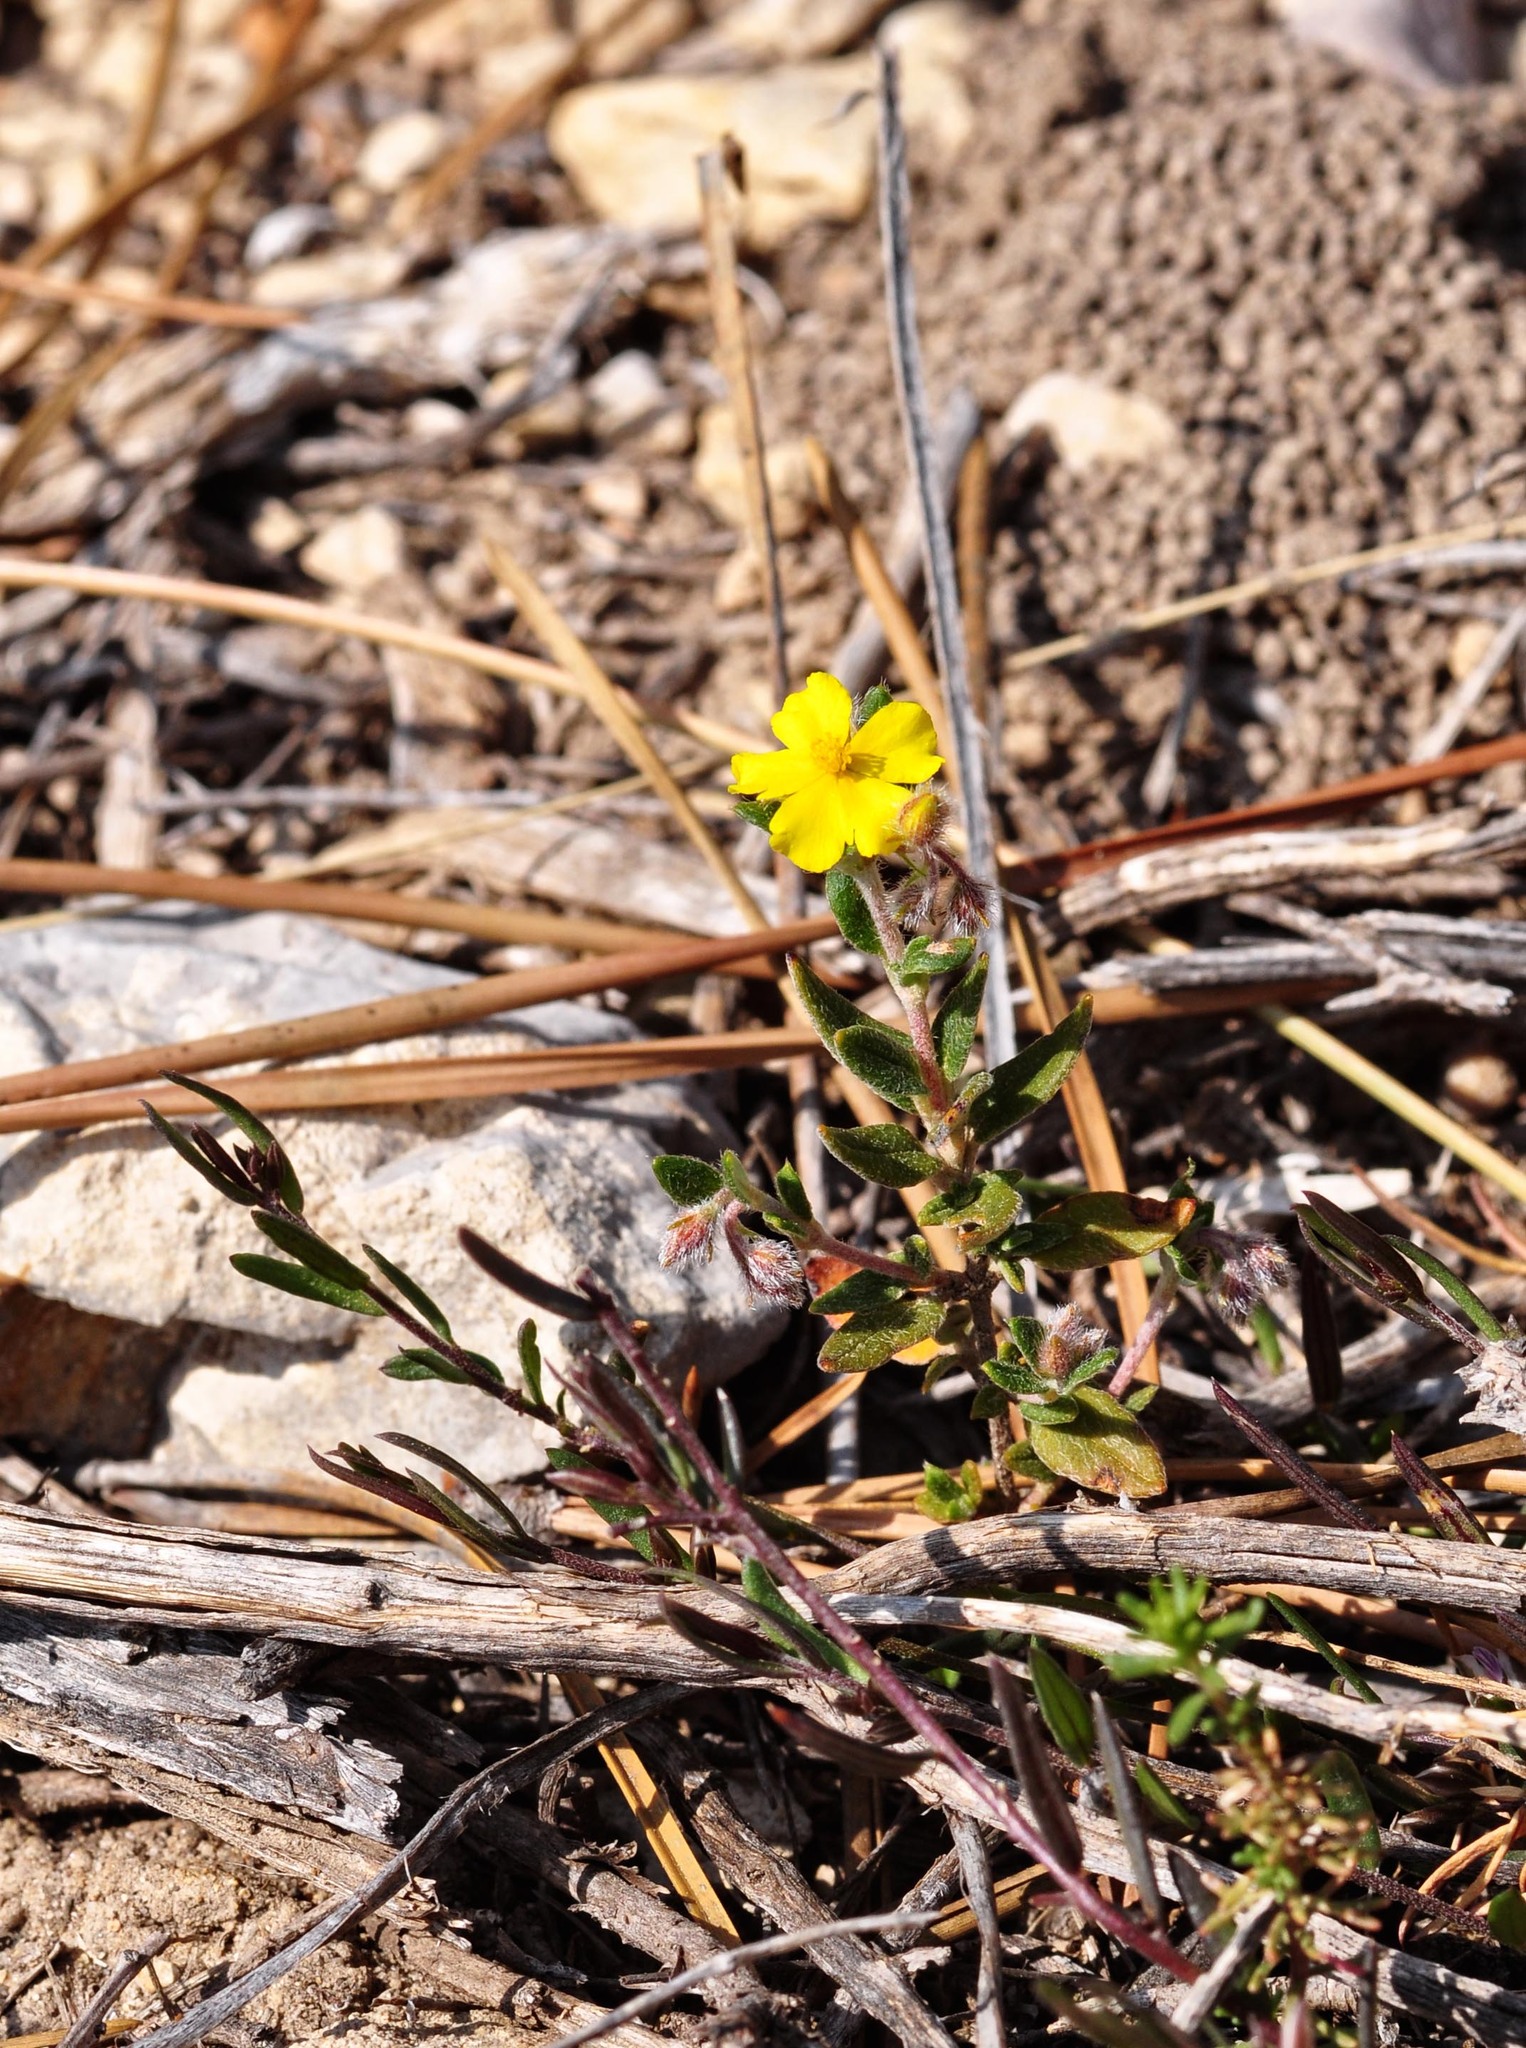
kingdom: Plantae
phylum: Tracheophyta
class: Magnoliopsida
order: Malvales
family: Cistaceae
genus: Helianthemum
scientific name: Helianthemum oelandicum
